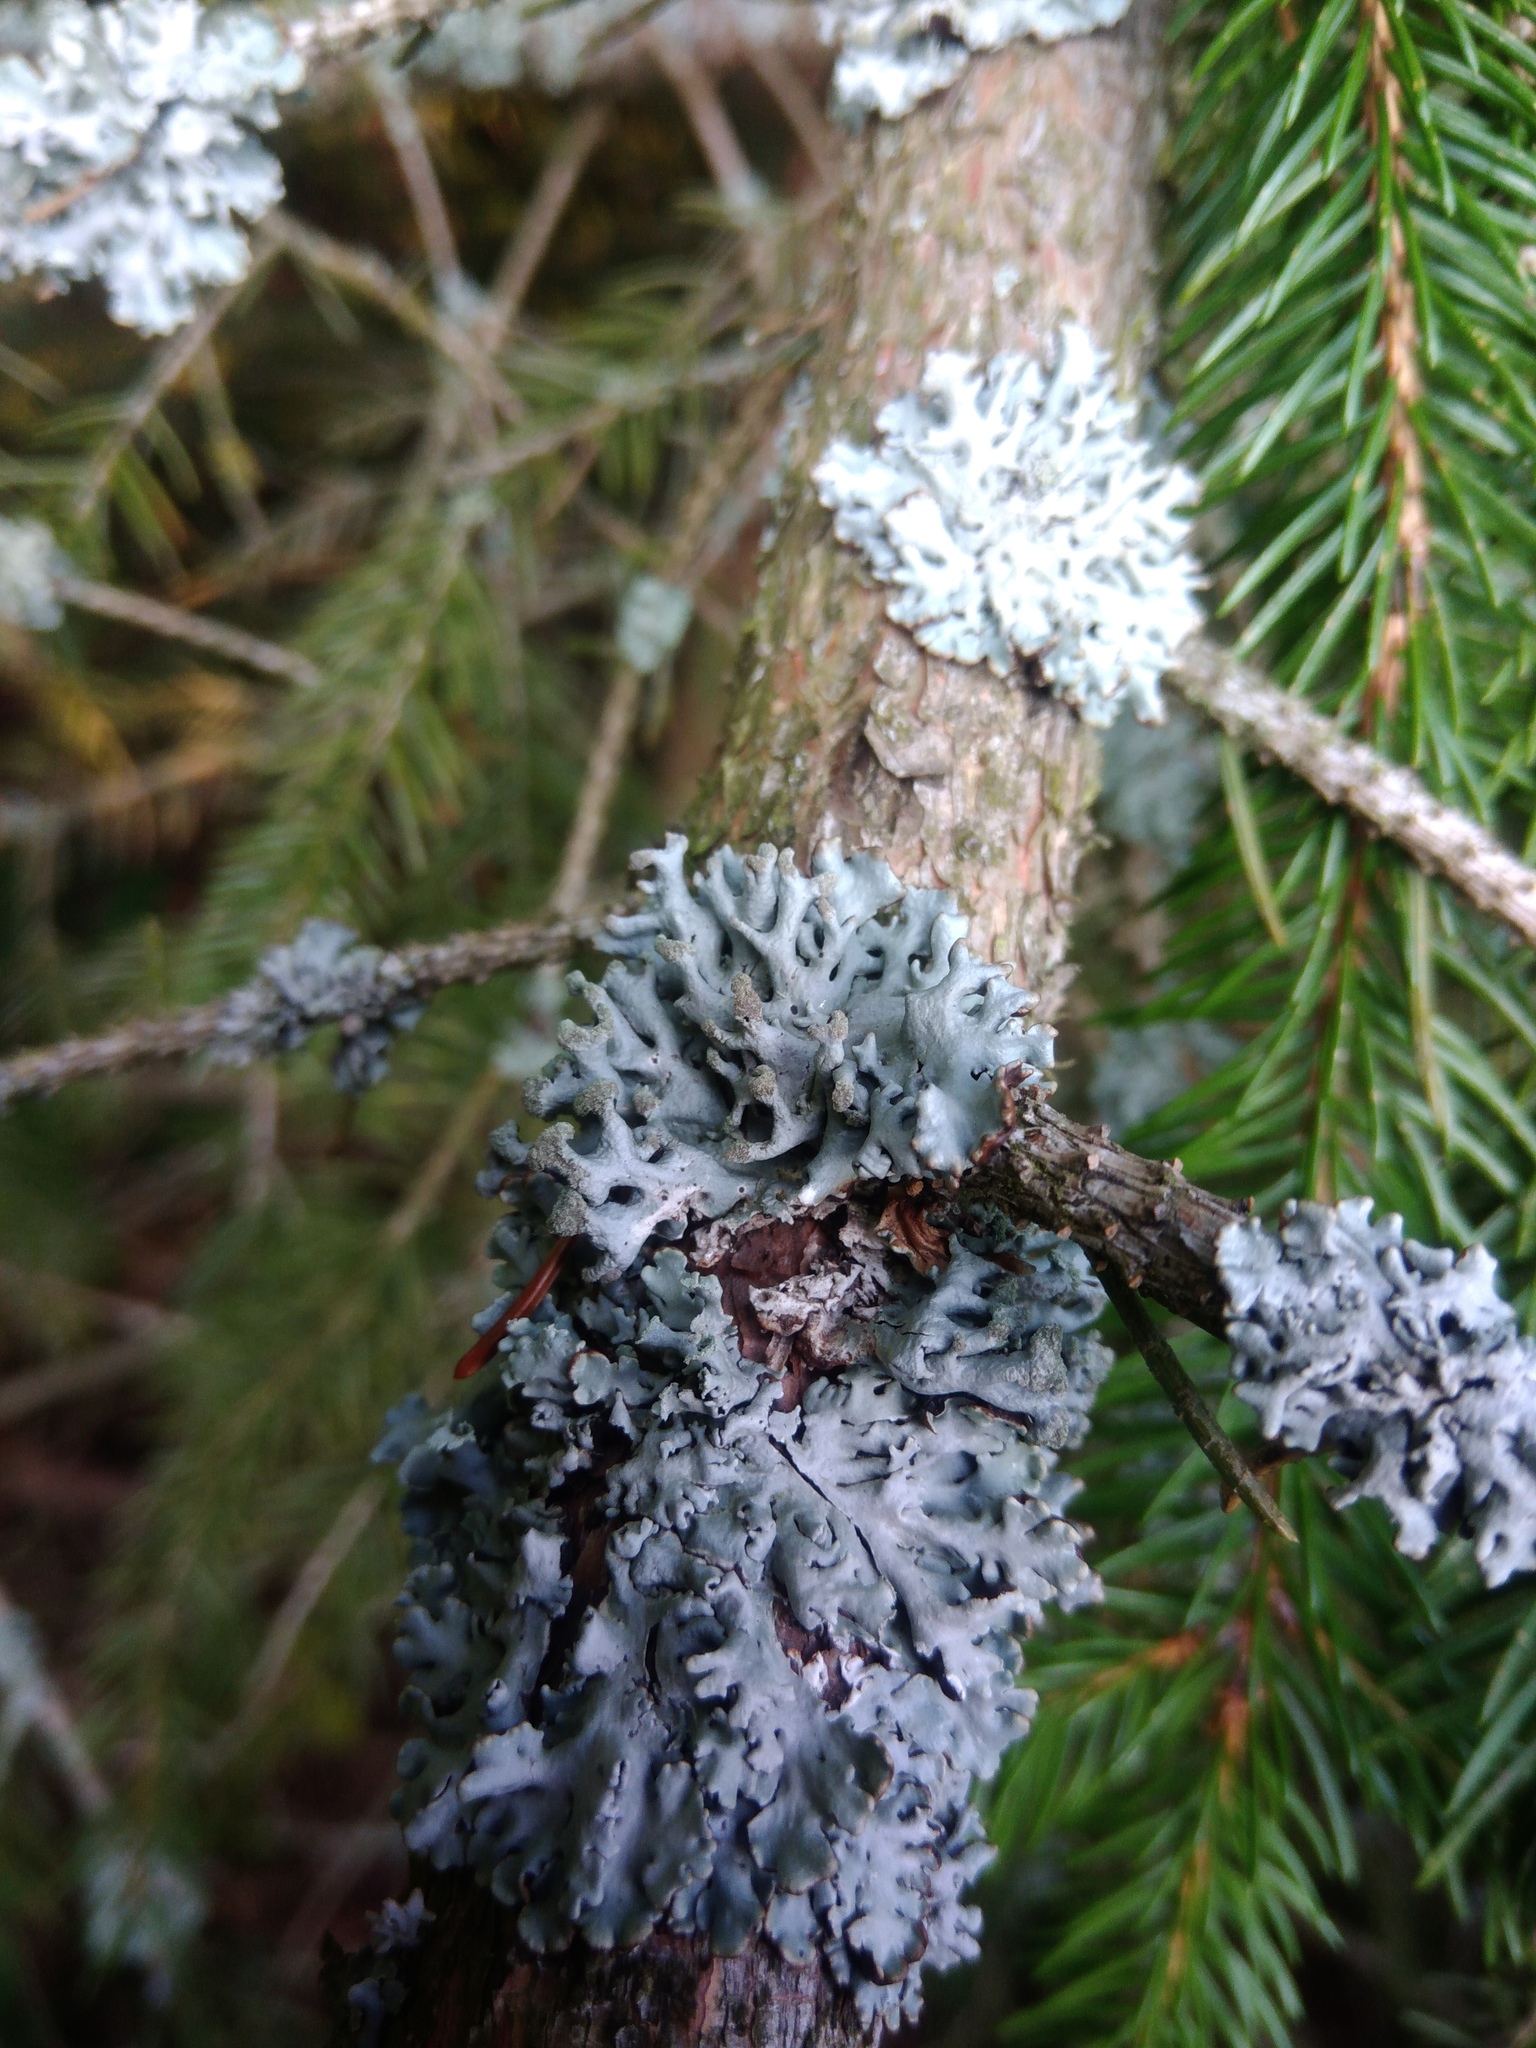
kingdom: Fungi
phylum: Ascomycota
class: Lecanoromycetes
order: Lecanorales
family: Parmeliaceae
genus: Hypogymnia
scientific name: Hypogymnia physodes
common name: Dark crottle
